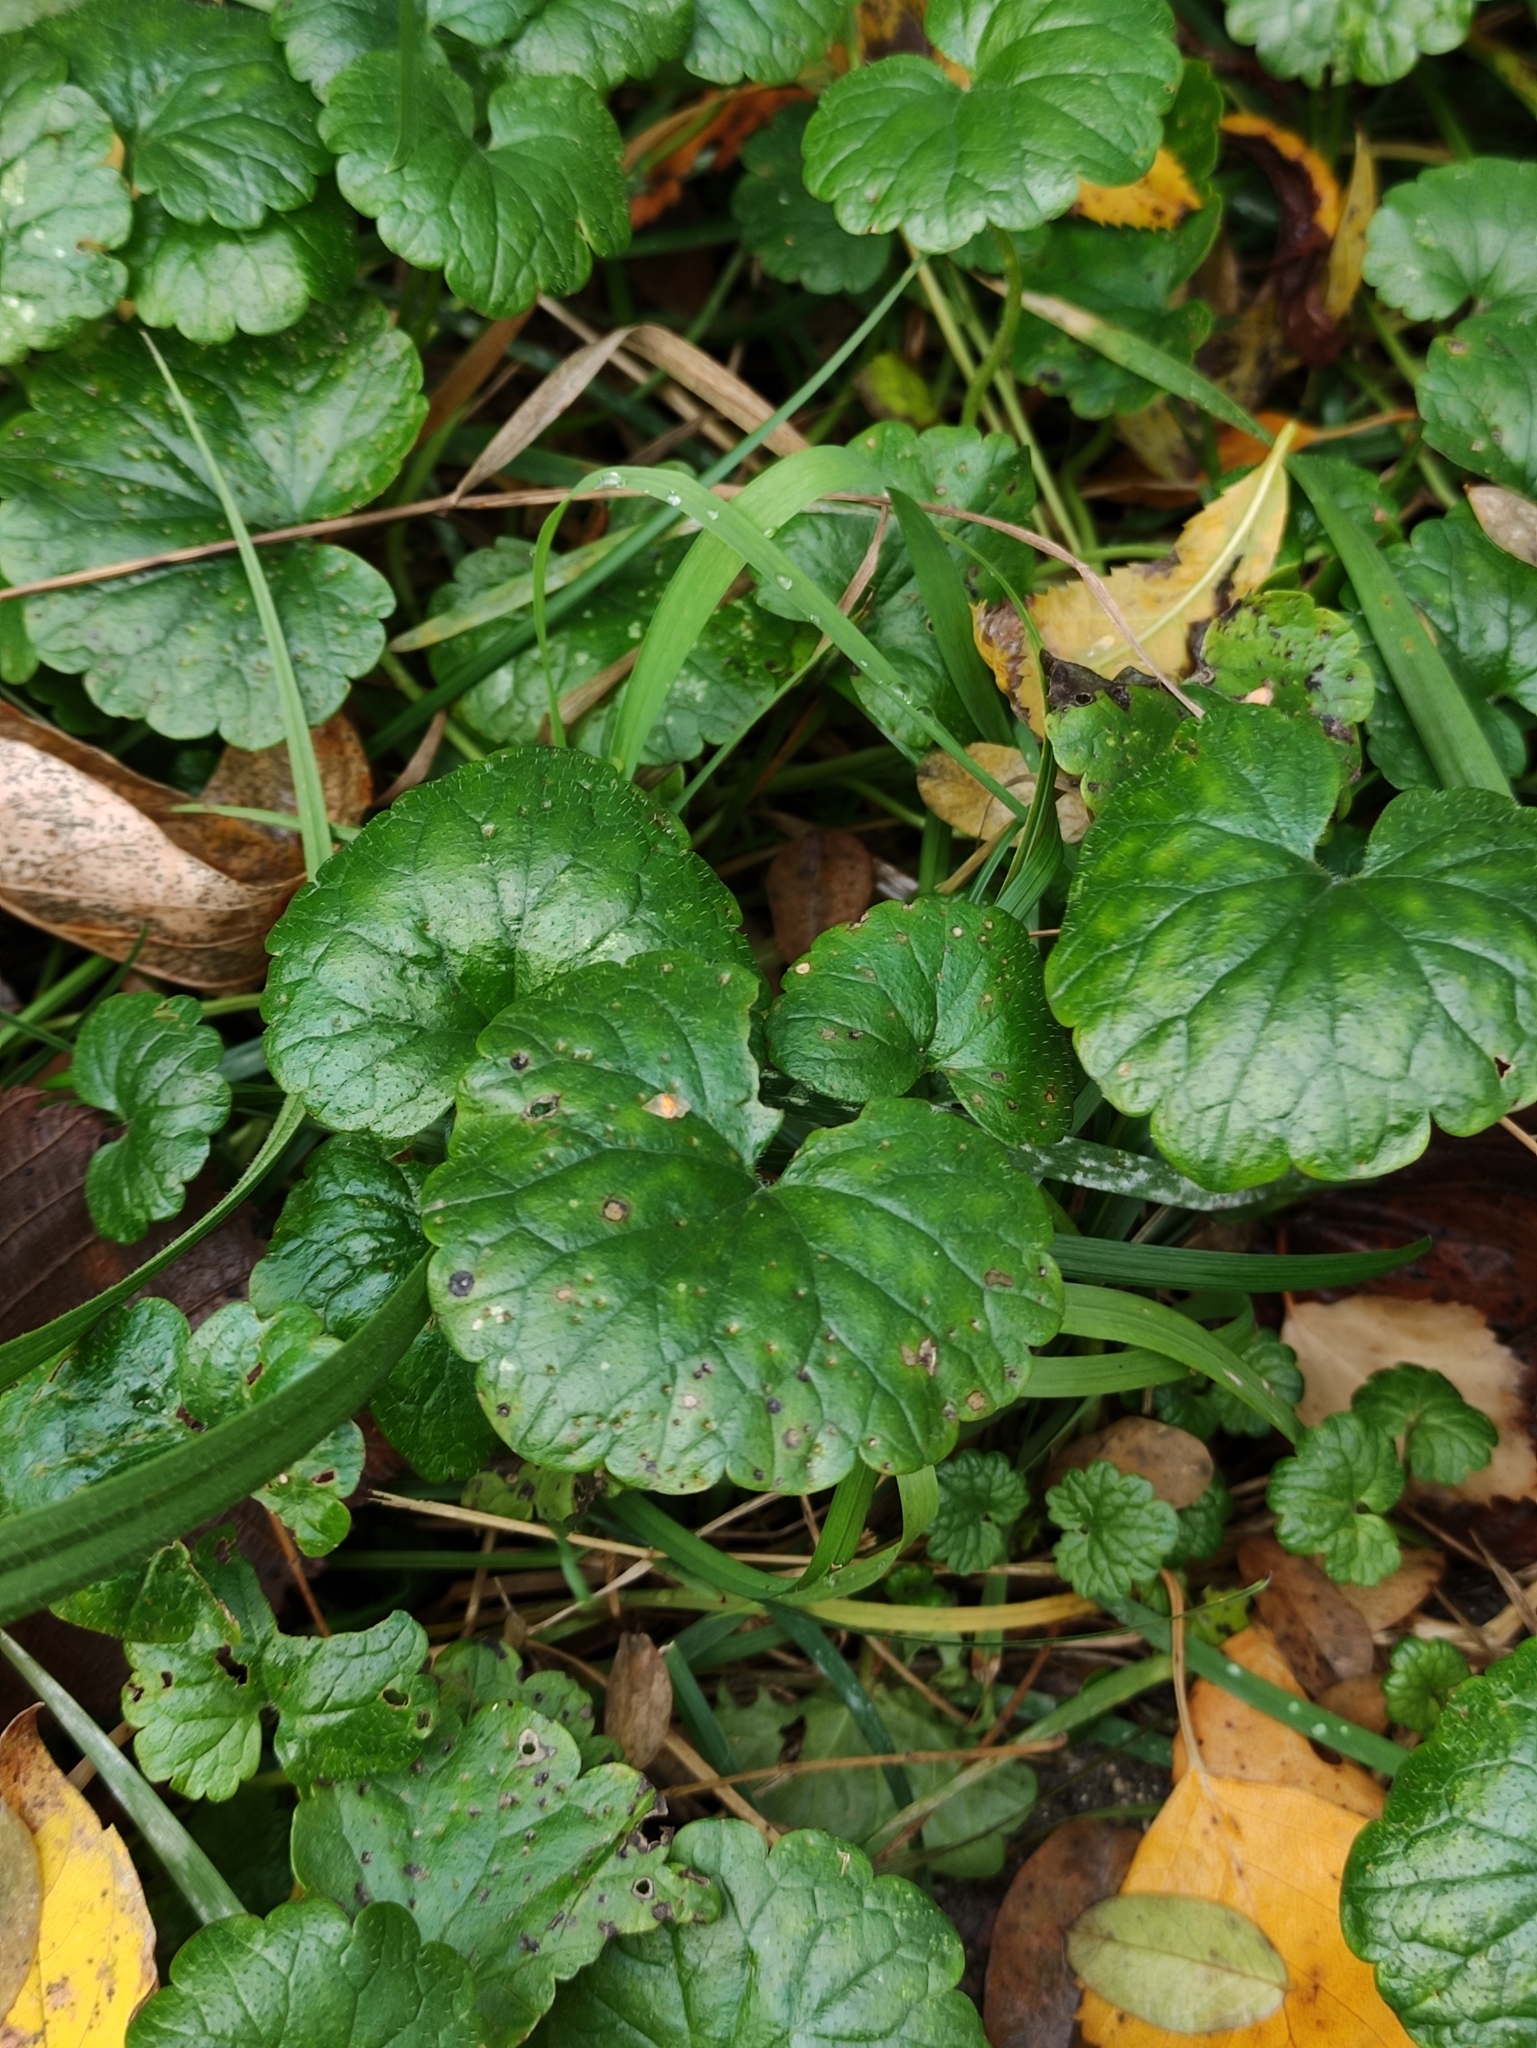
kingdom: Plantae
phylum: Tracheophyta
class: Magnoliopsida
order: Lamiales
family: Lamiaceae
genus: Glechoma
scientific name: Glechoma hederacea
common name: Ground ivy
